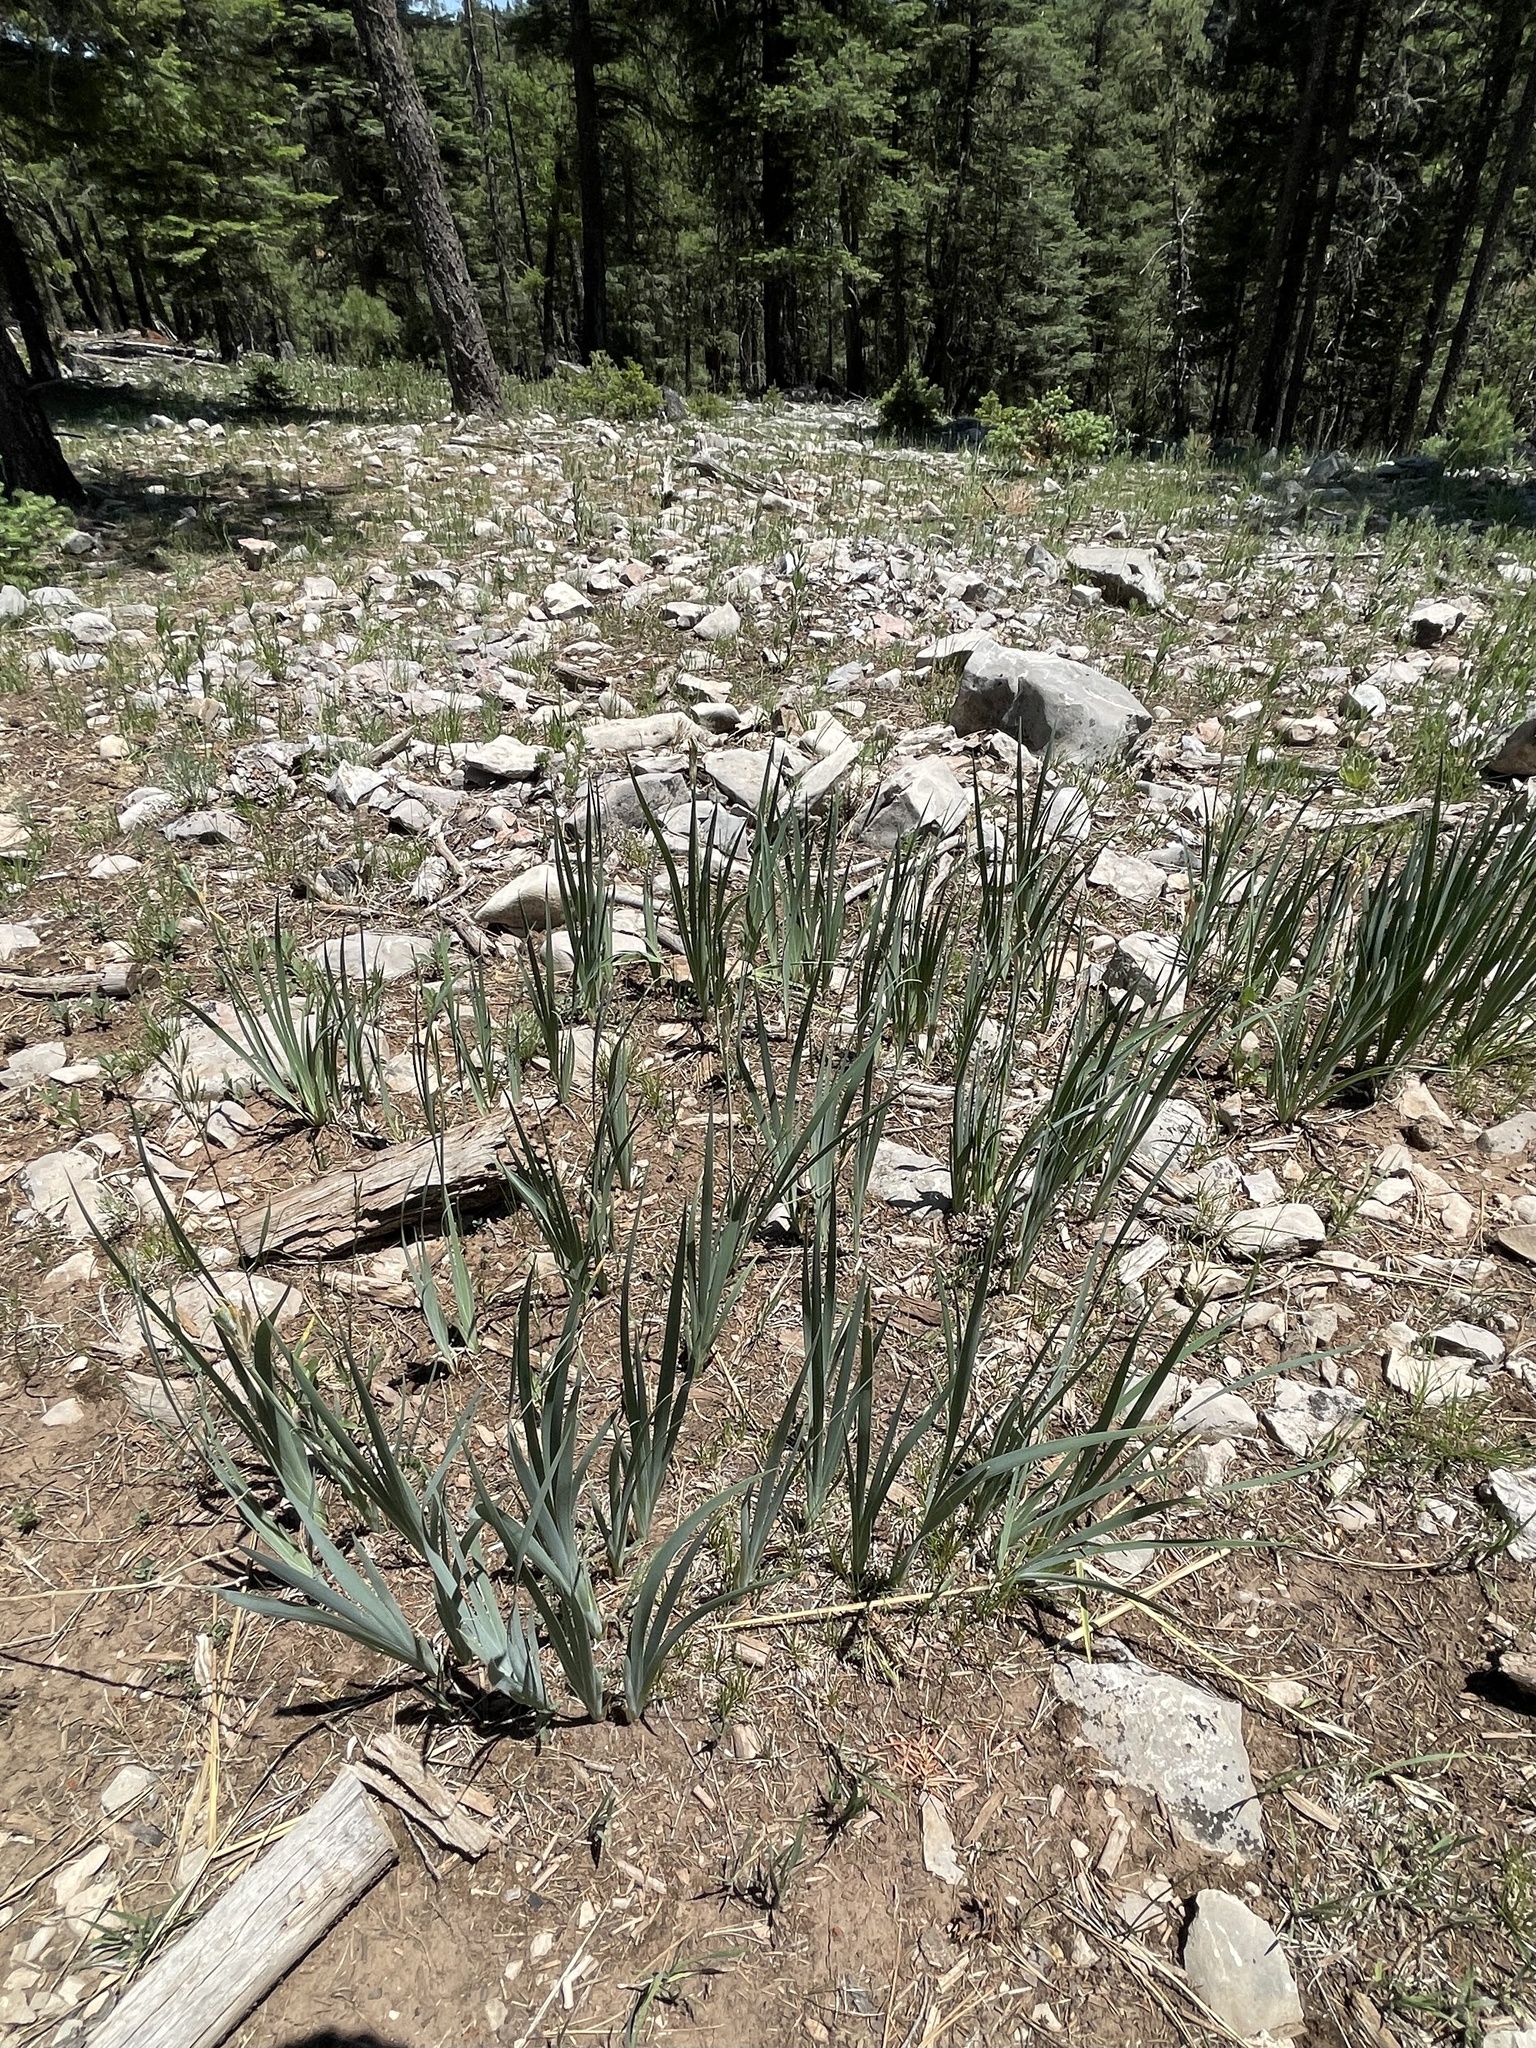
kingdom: Plantae
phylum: Tracheophyta
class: Liliopsida
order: Asparagales
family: Iridaceae
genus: Iris
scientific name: Iris missouriensis
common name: Rocky mountain iris
